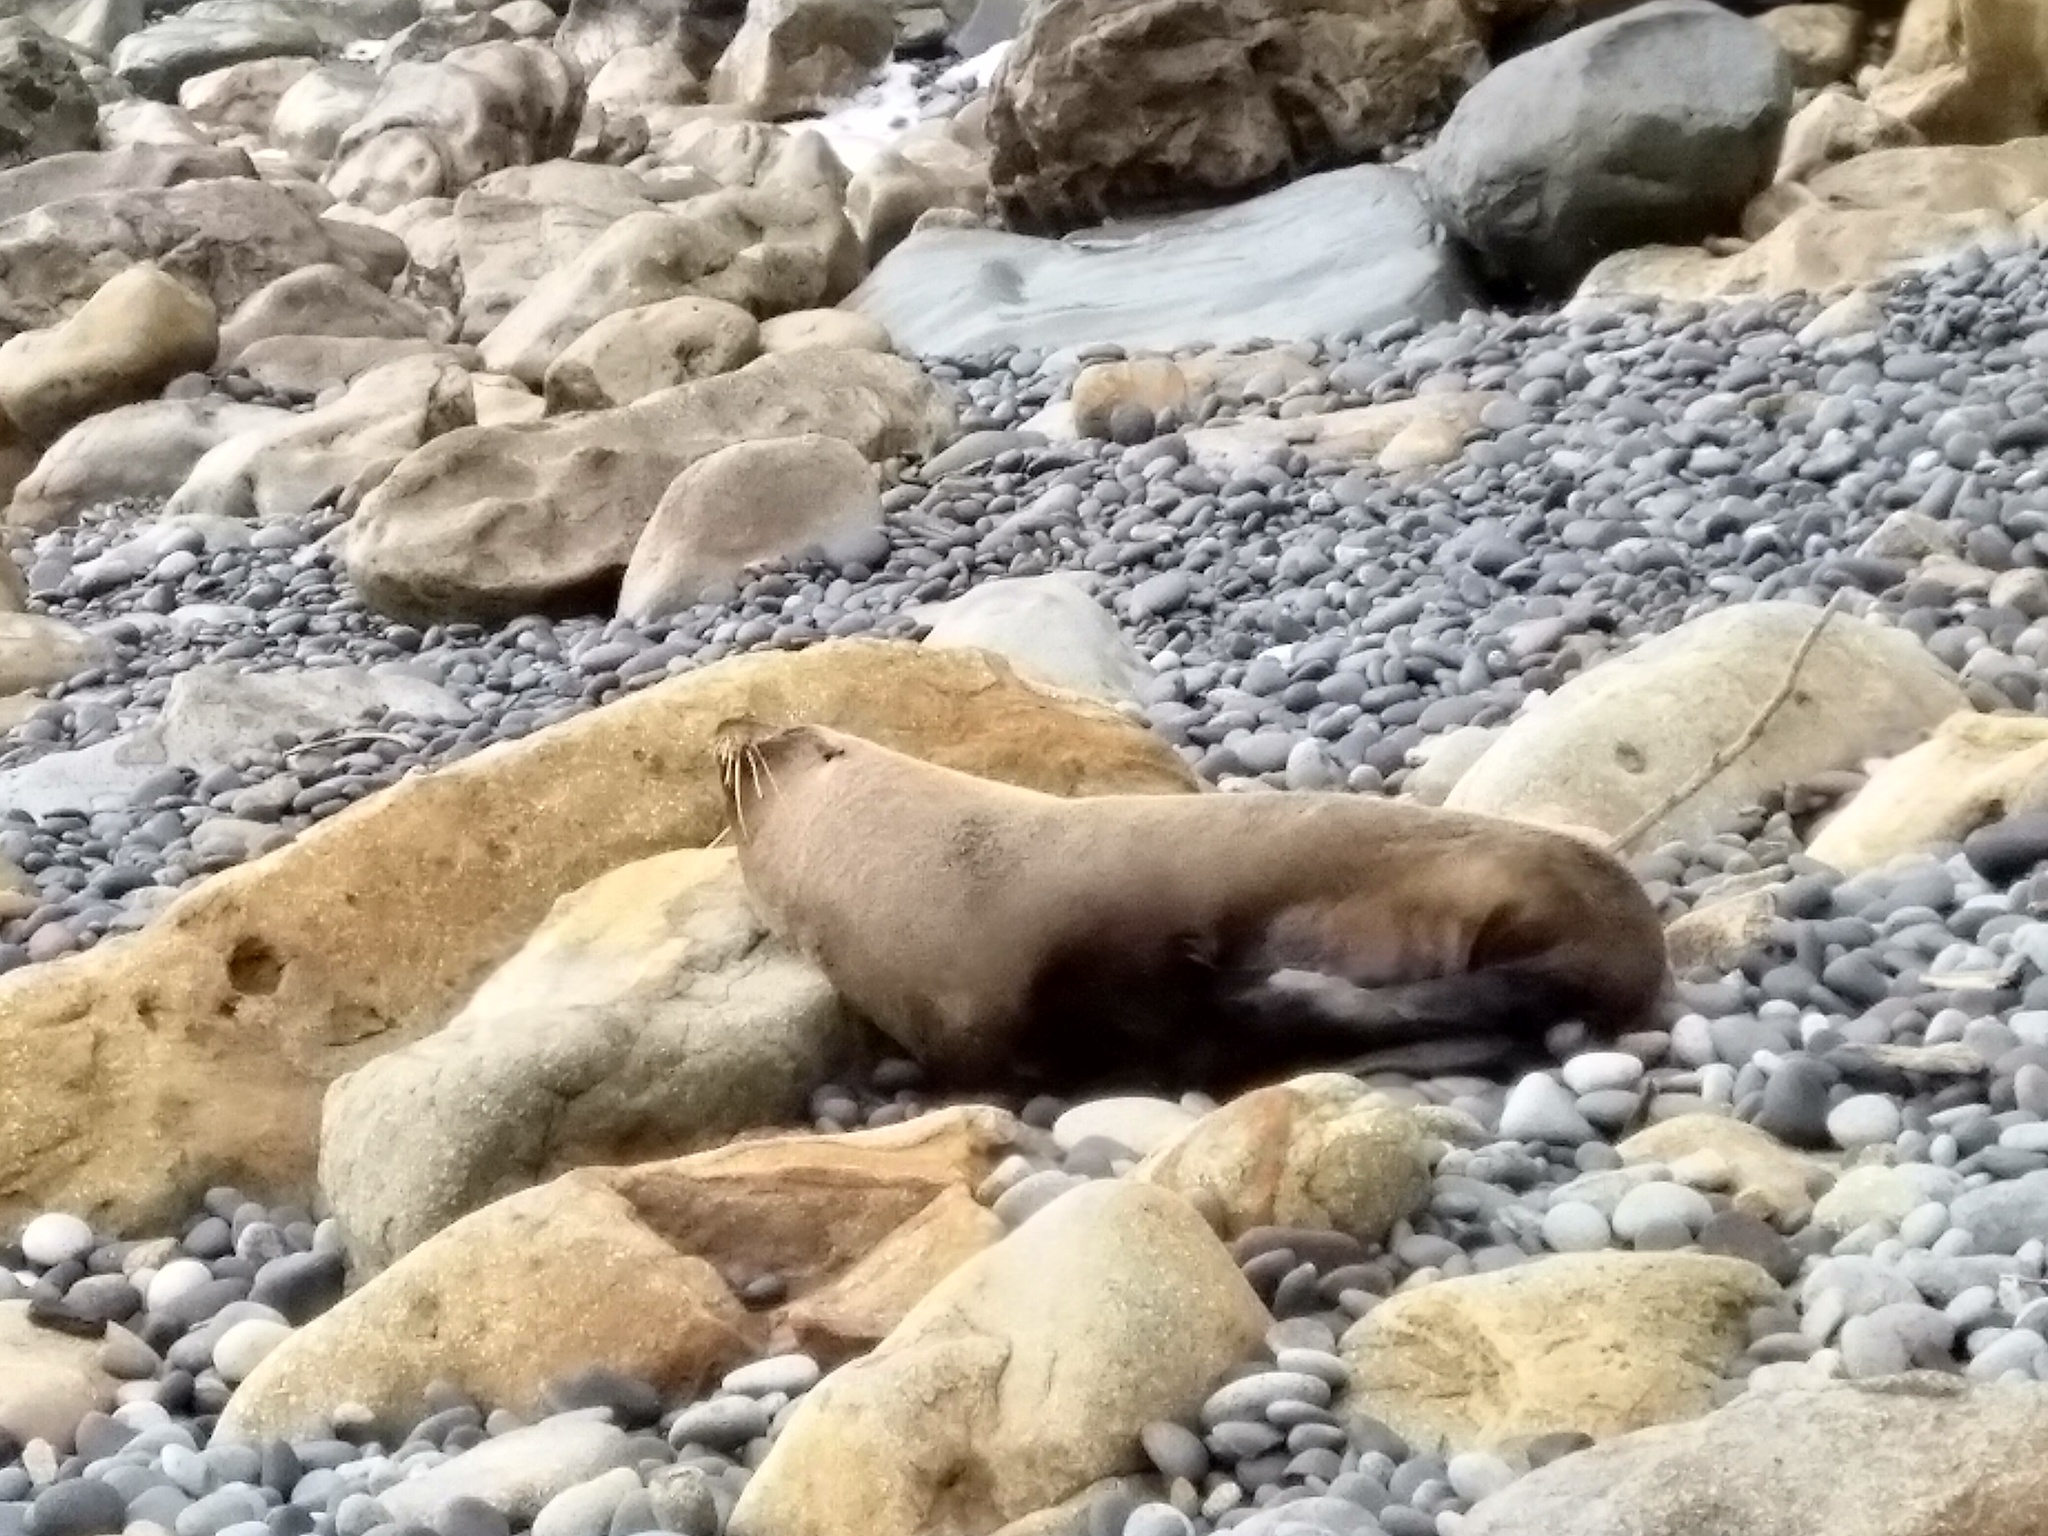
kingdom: Animalia
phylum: Chordata
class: Mammalia
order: Carnivora
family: Otariidae
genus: Arctocephalus
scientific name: Arctocephalus forsteri
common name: New zealand fur seal
